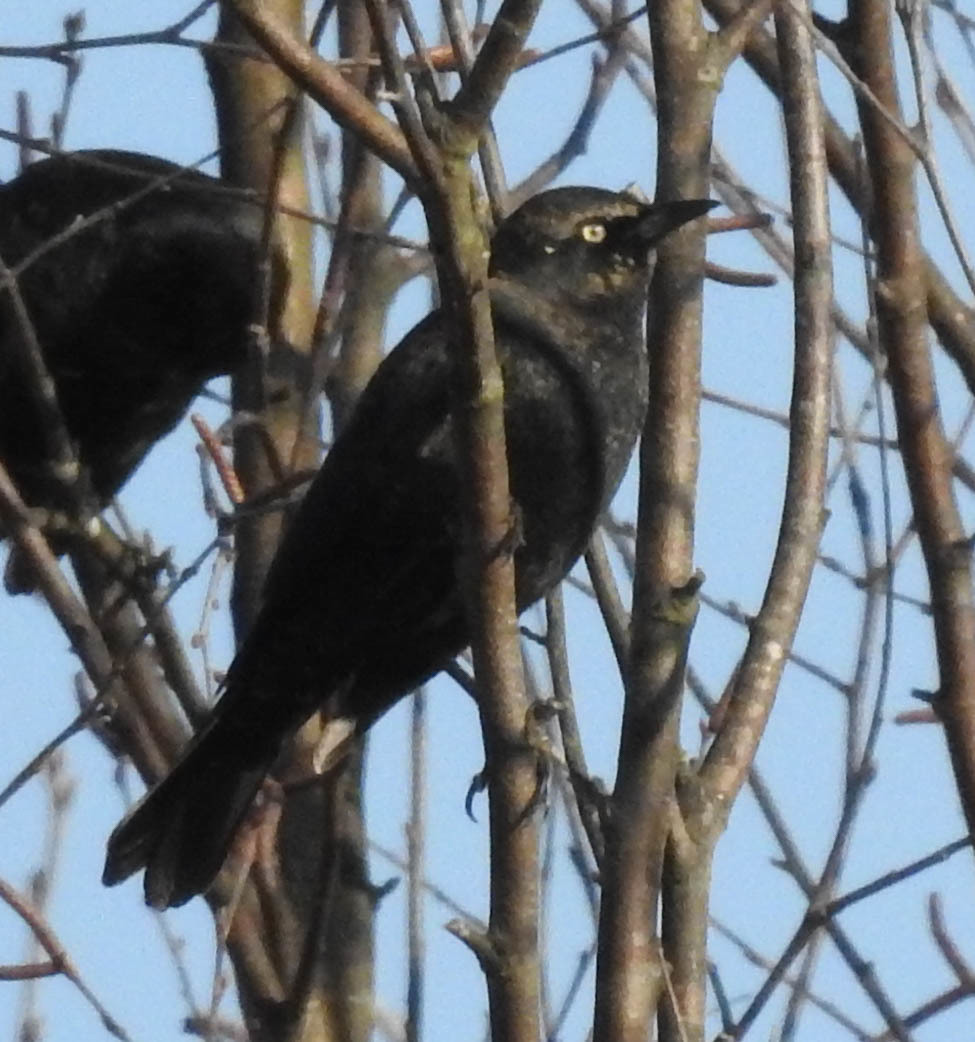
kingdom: Animalia
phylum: Chordata
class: Aves
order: Passeriformes
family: Icteridae
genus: Euphagus
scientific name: Euphagus carolinus
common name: Rusty blackbird
